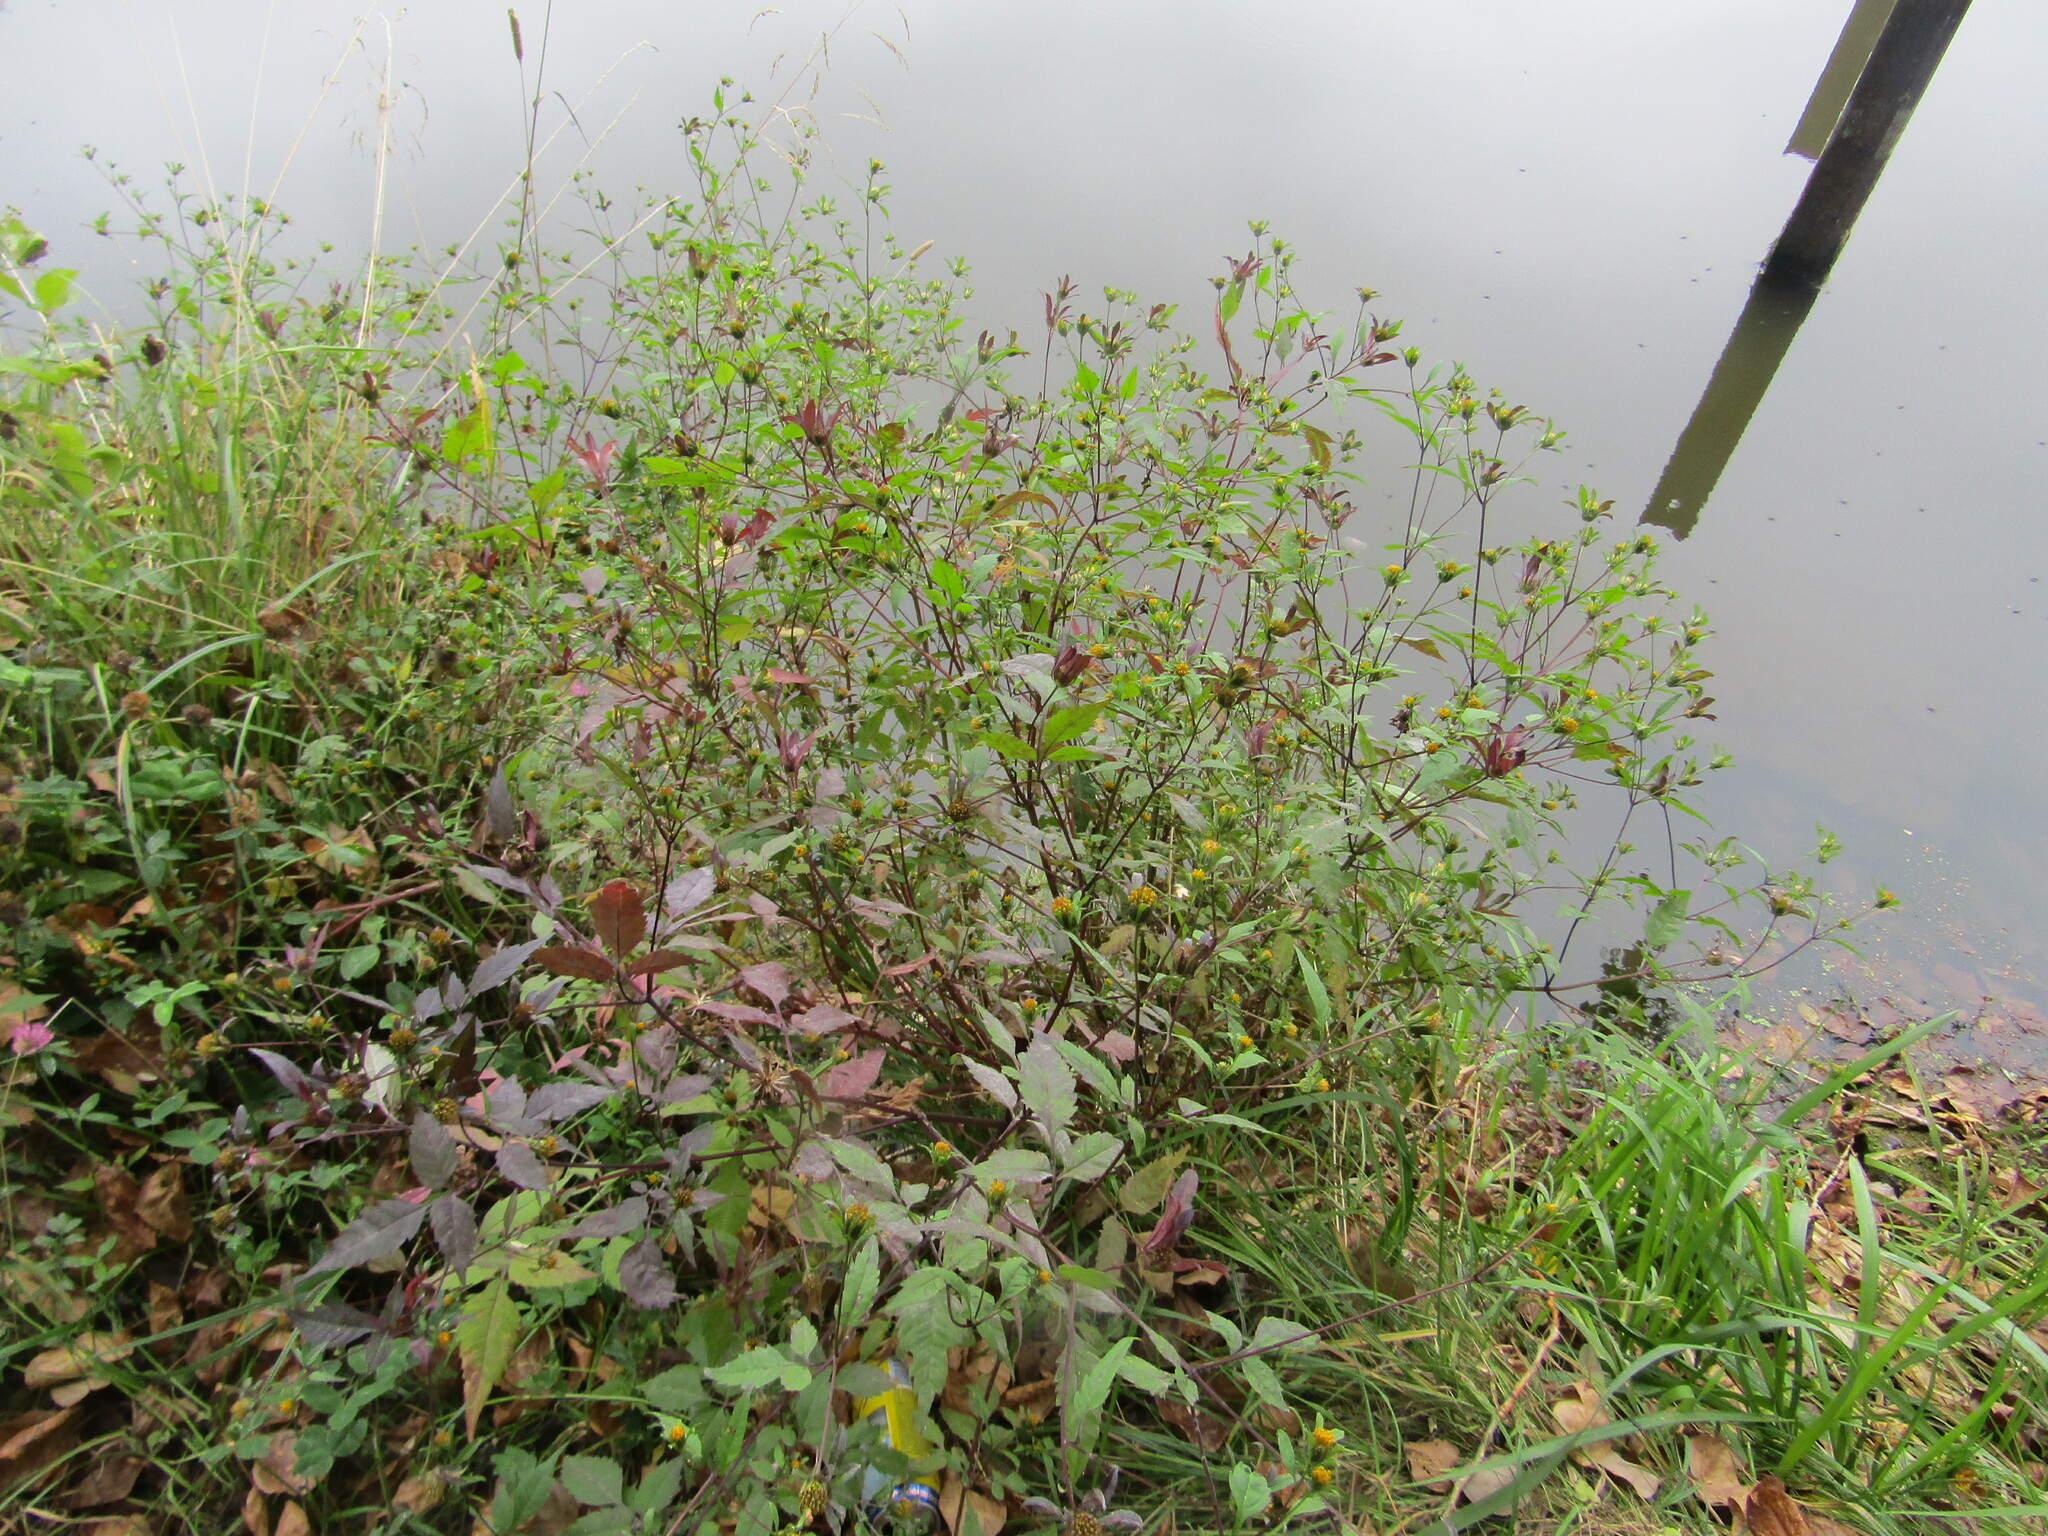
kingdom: Plantae
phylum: Tracheophyta
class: Magnoliopsida
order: Asterales
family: Asteraceae
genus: Bidens
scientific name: Bidens frondosa
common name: Beggarticks
